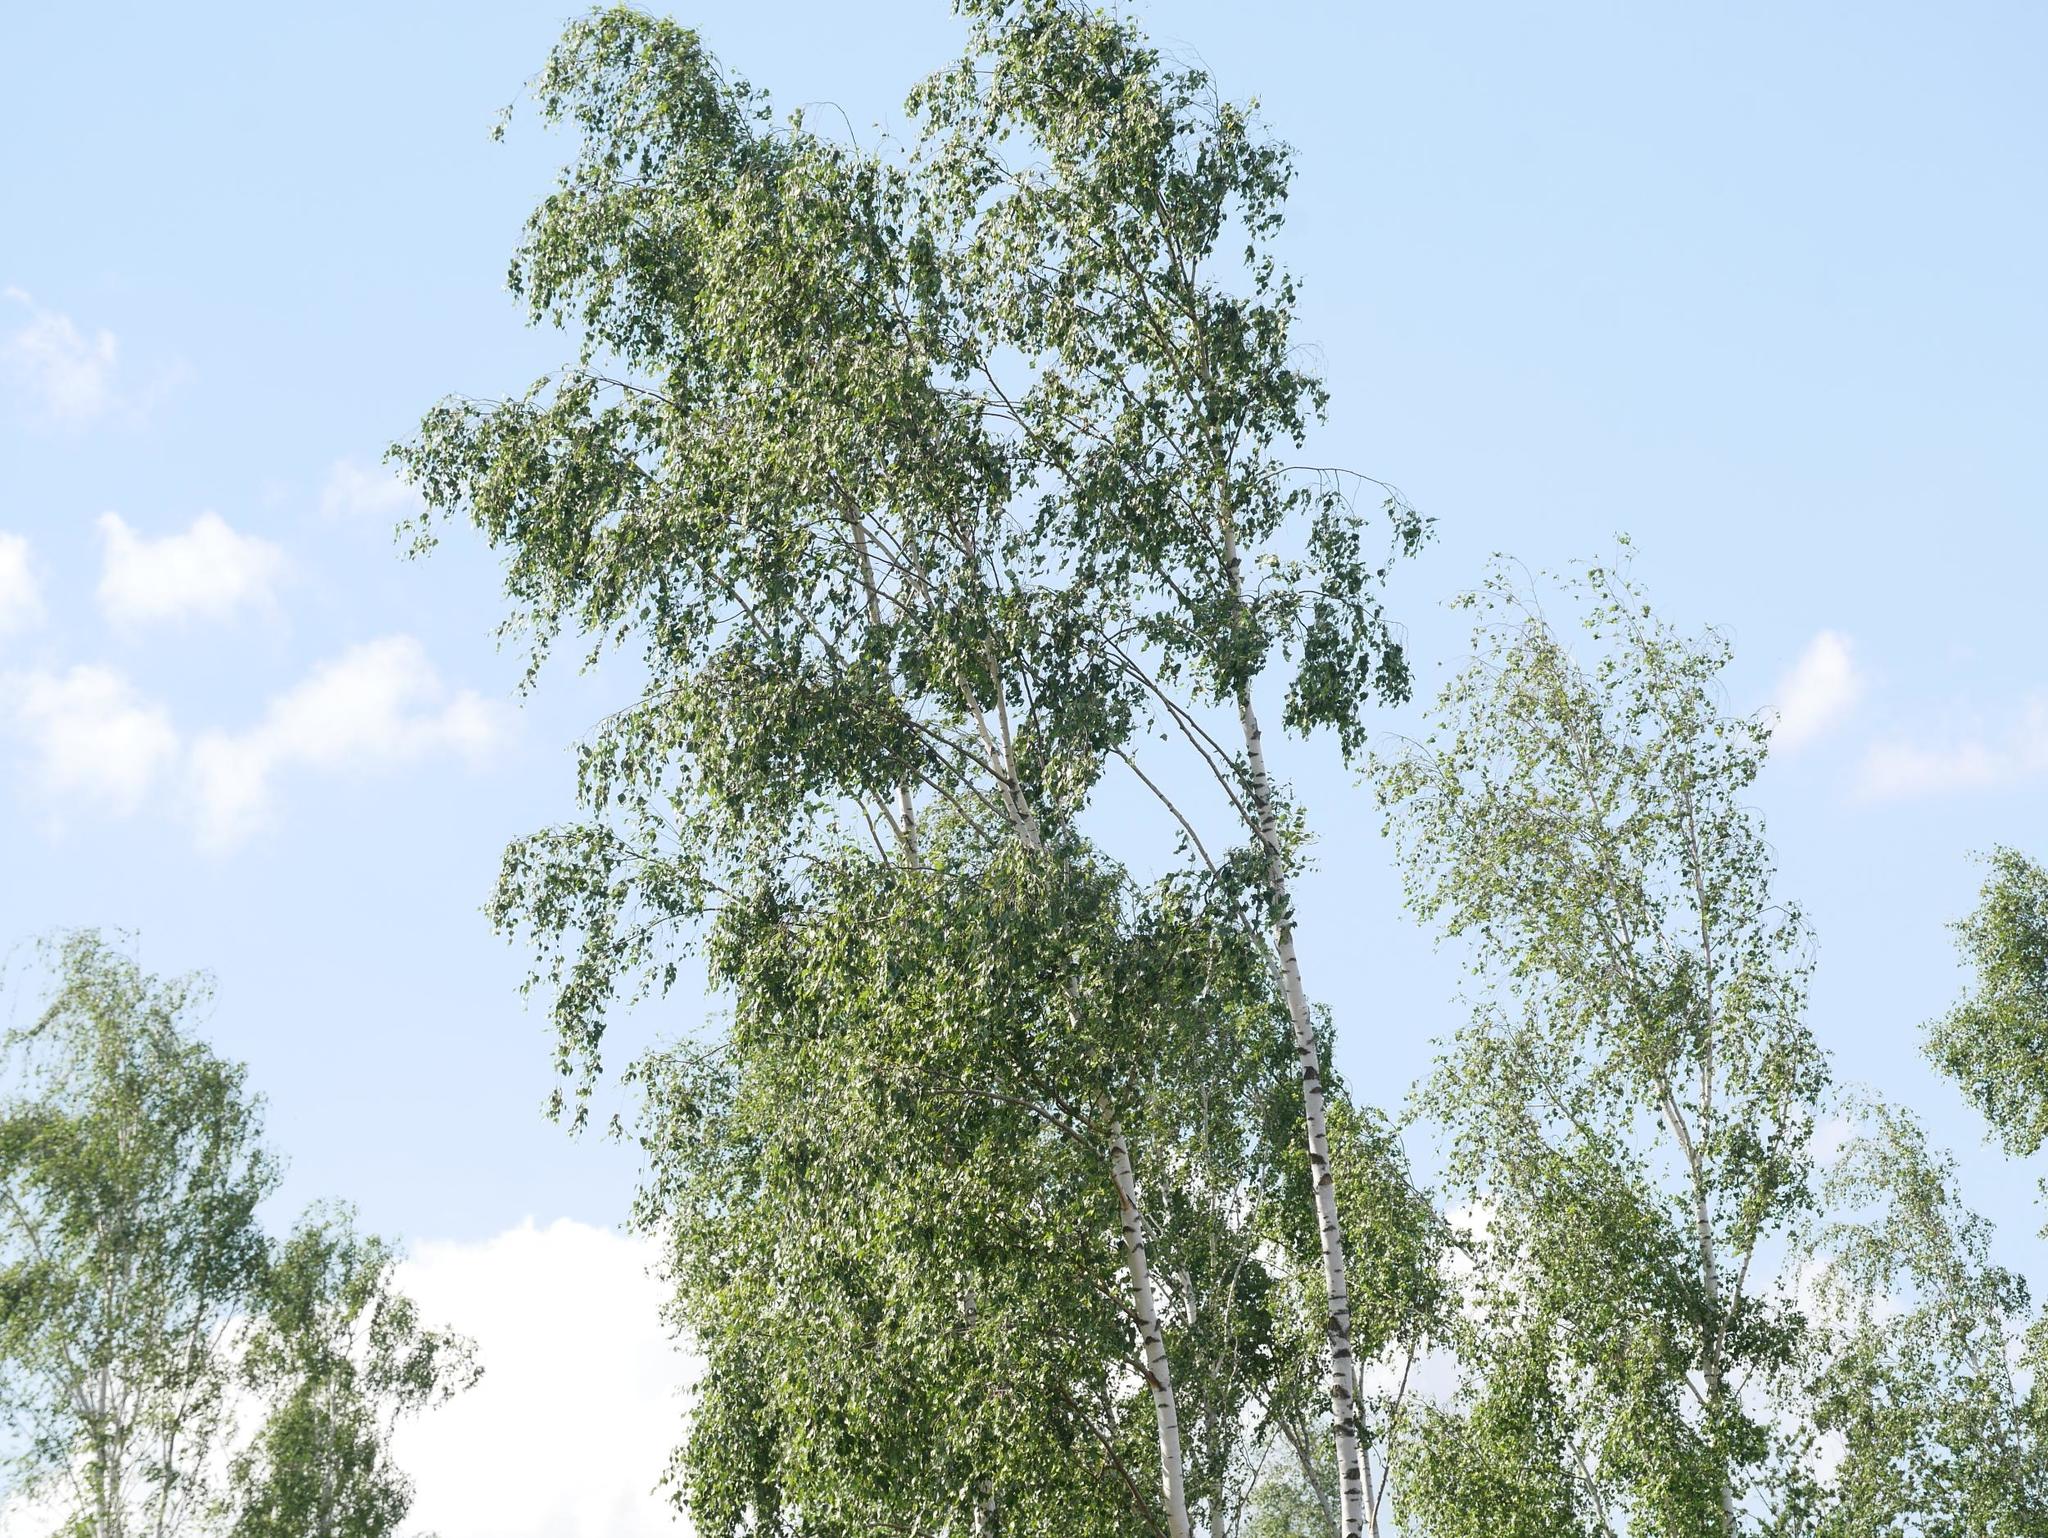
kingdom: Plantae
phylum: Tracheophyta
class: Magnoliopsida
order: Fagales
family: Betulaceae
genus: Betula
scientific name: Betula pendula
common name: Silver birch
